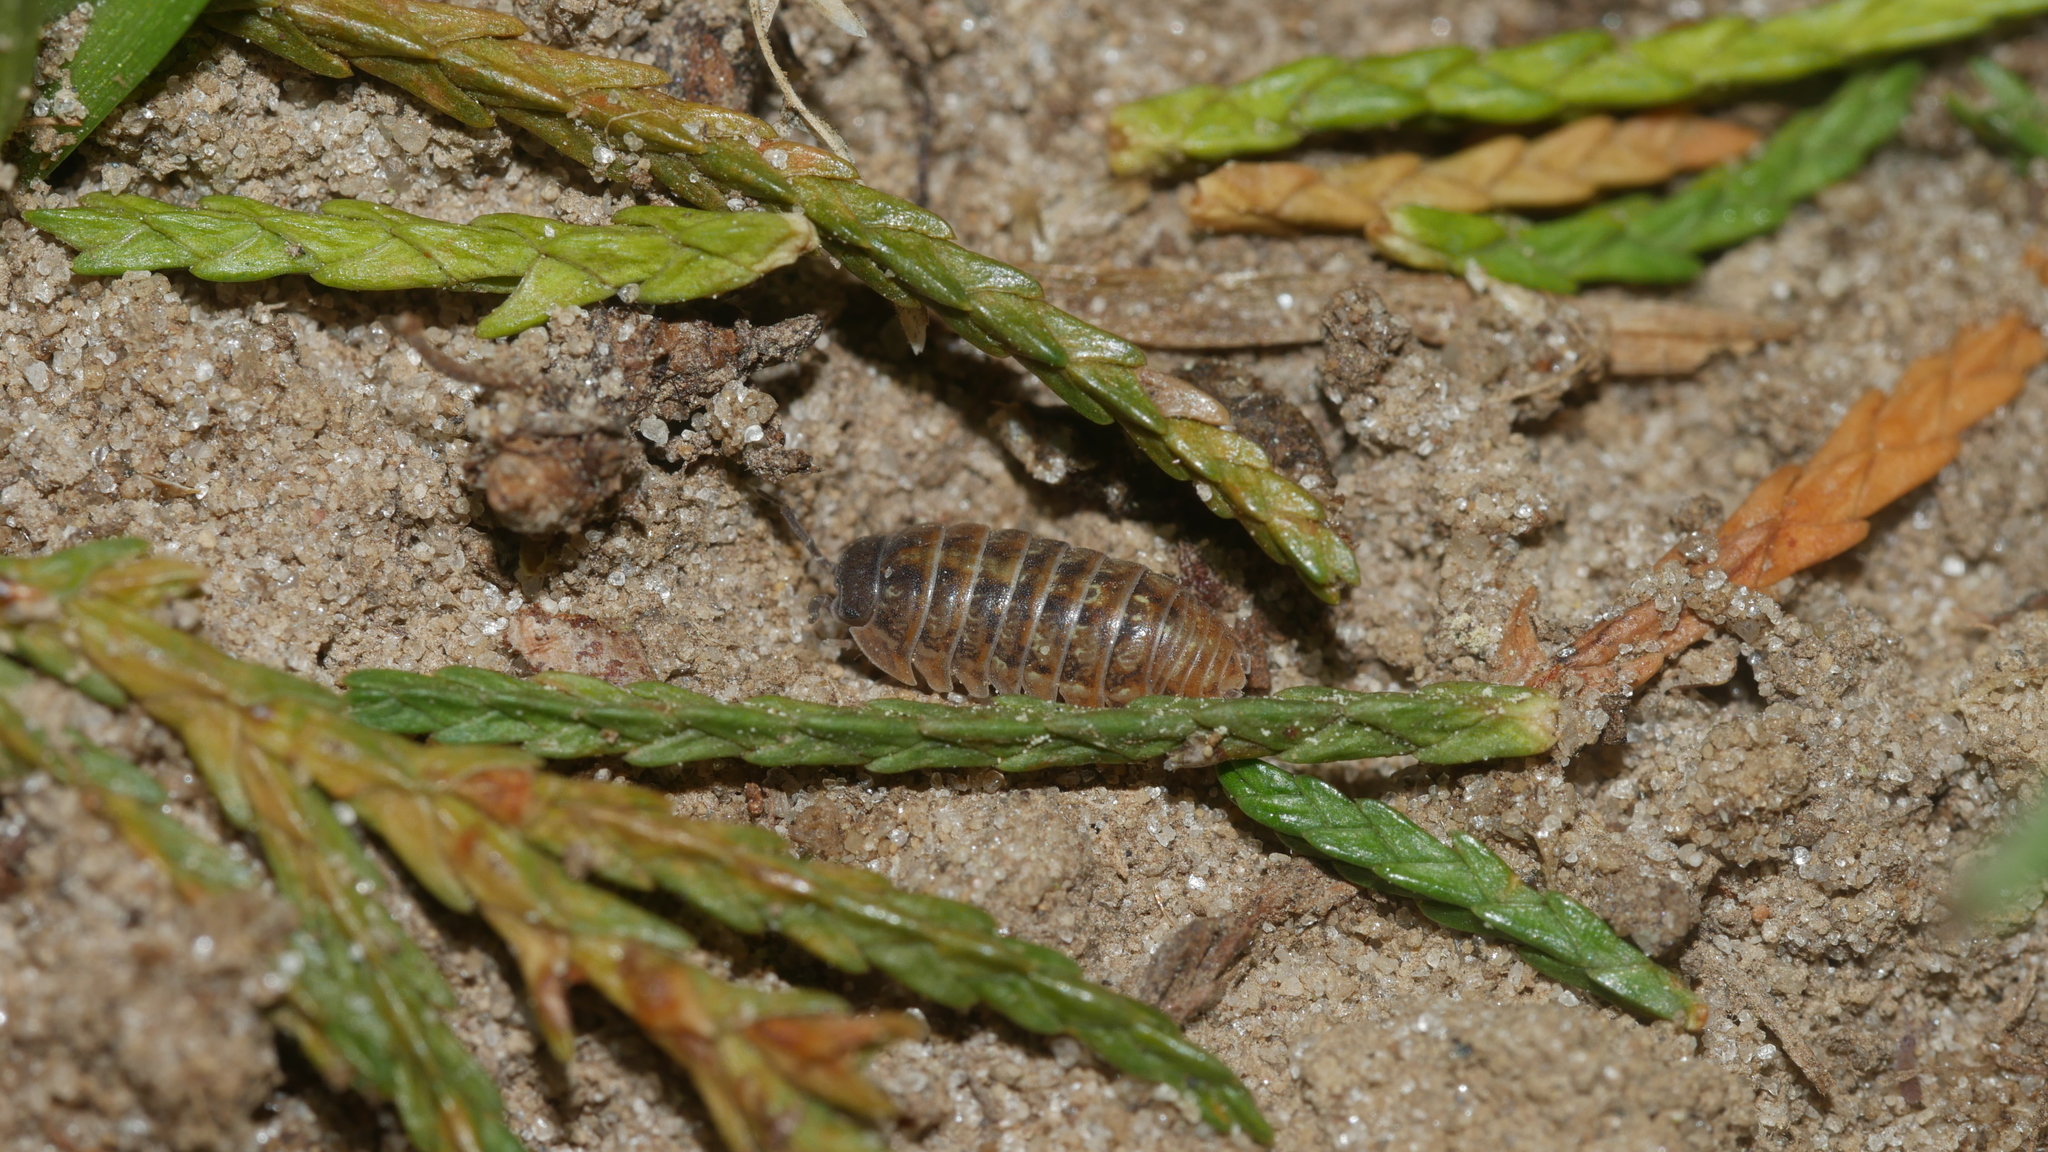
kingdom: Animalia
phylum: Arthropoda
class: Malacostraca
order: Isopoda
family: Armadillidiidae
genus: Armadillidium
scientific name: Armadillidium vulgare
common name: Common pill woodlouse
